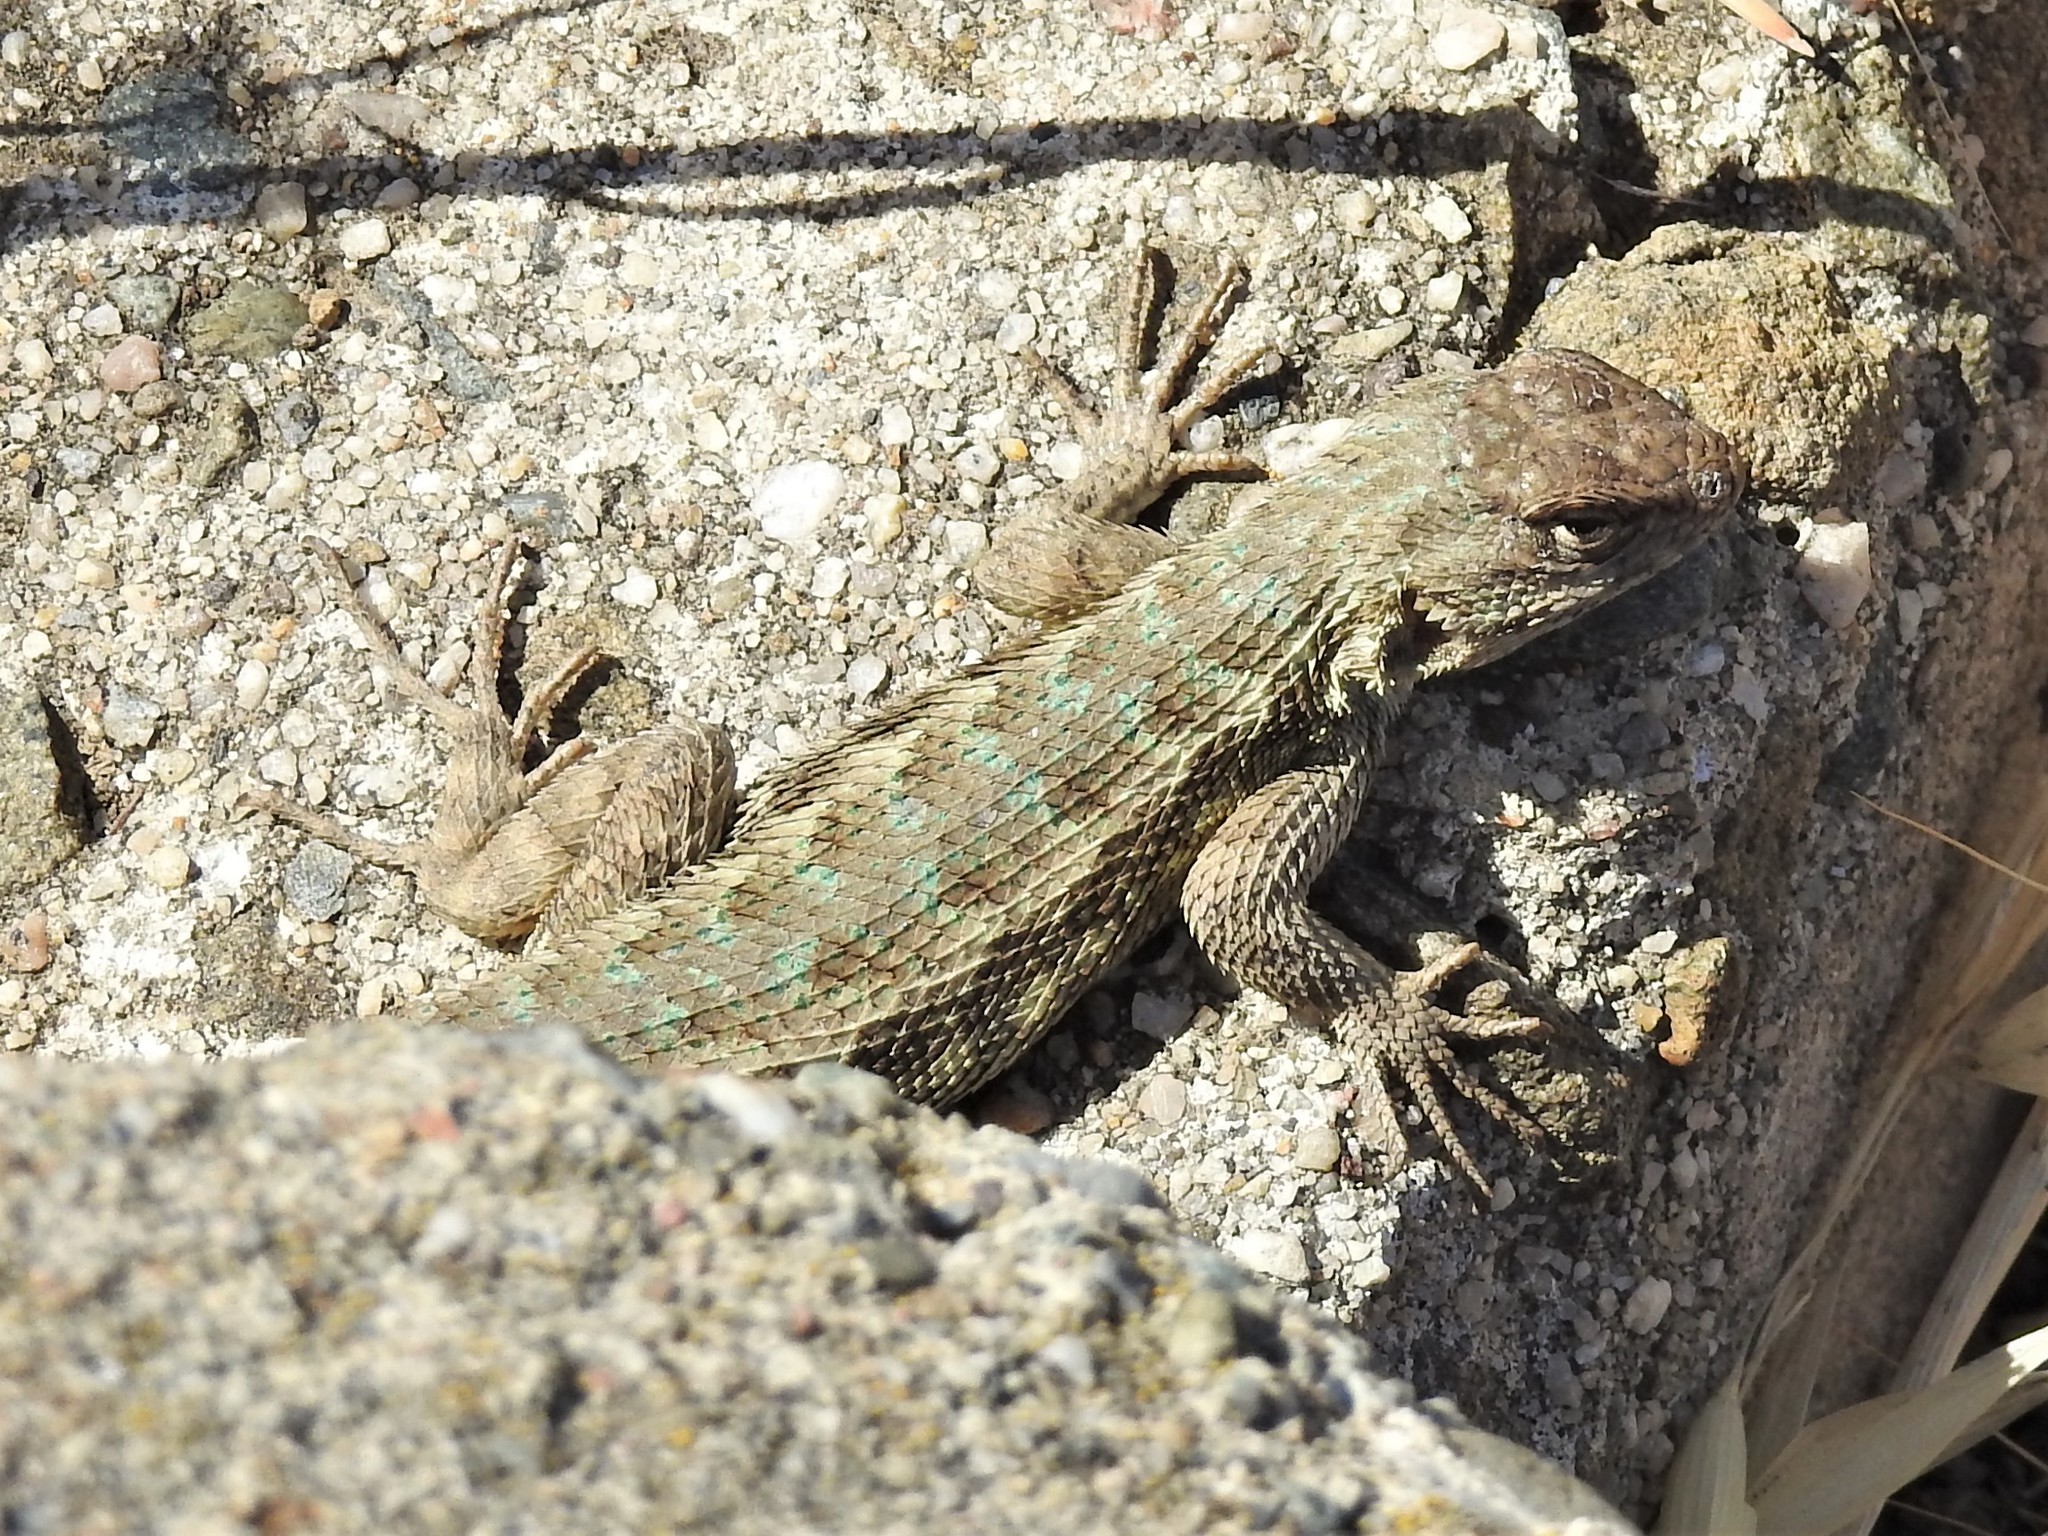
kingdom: Animalia
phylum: Chordata
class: Squamata
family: Phrynosomatidae
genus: Sceloporus
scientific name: Sceloporus occidentalis
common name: Western fence lizard
